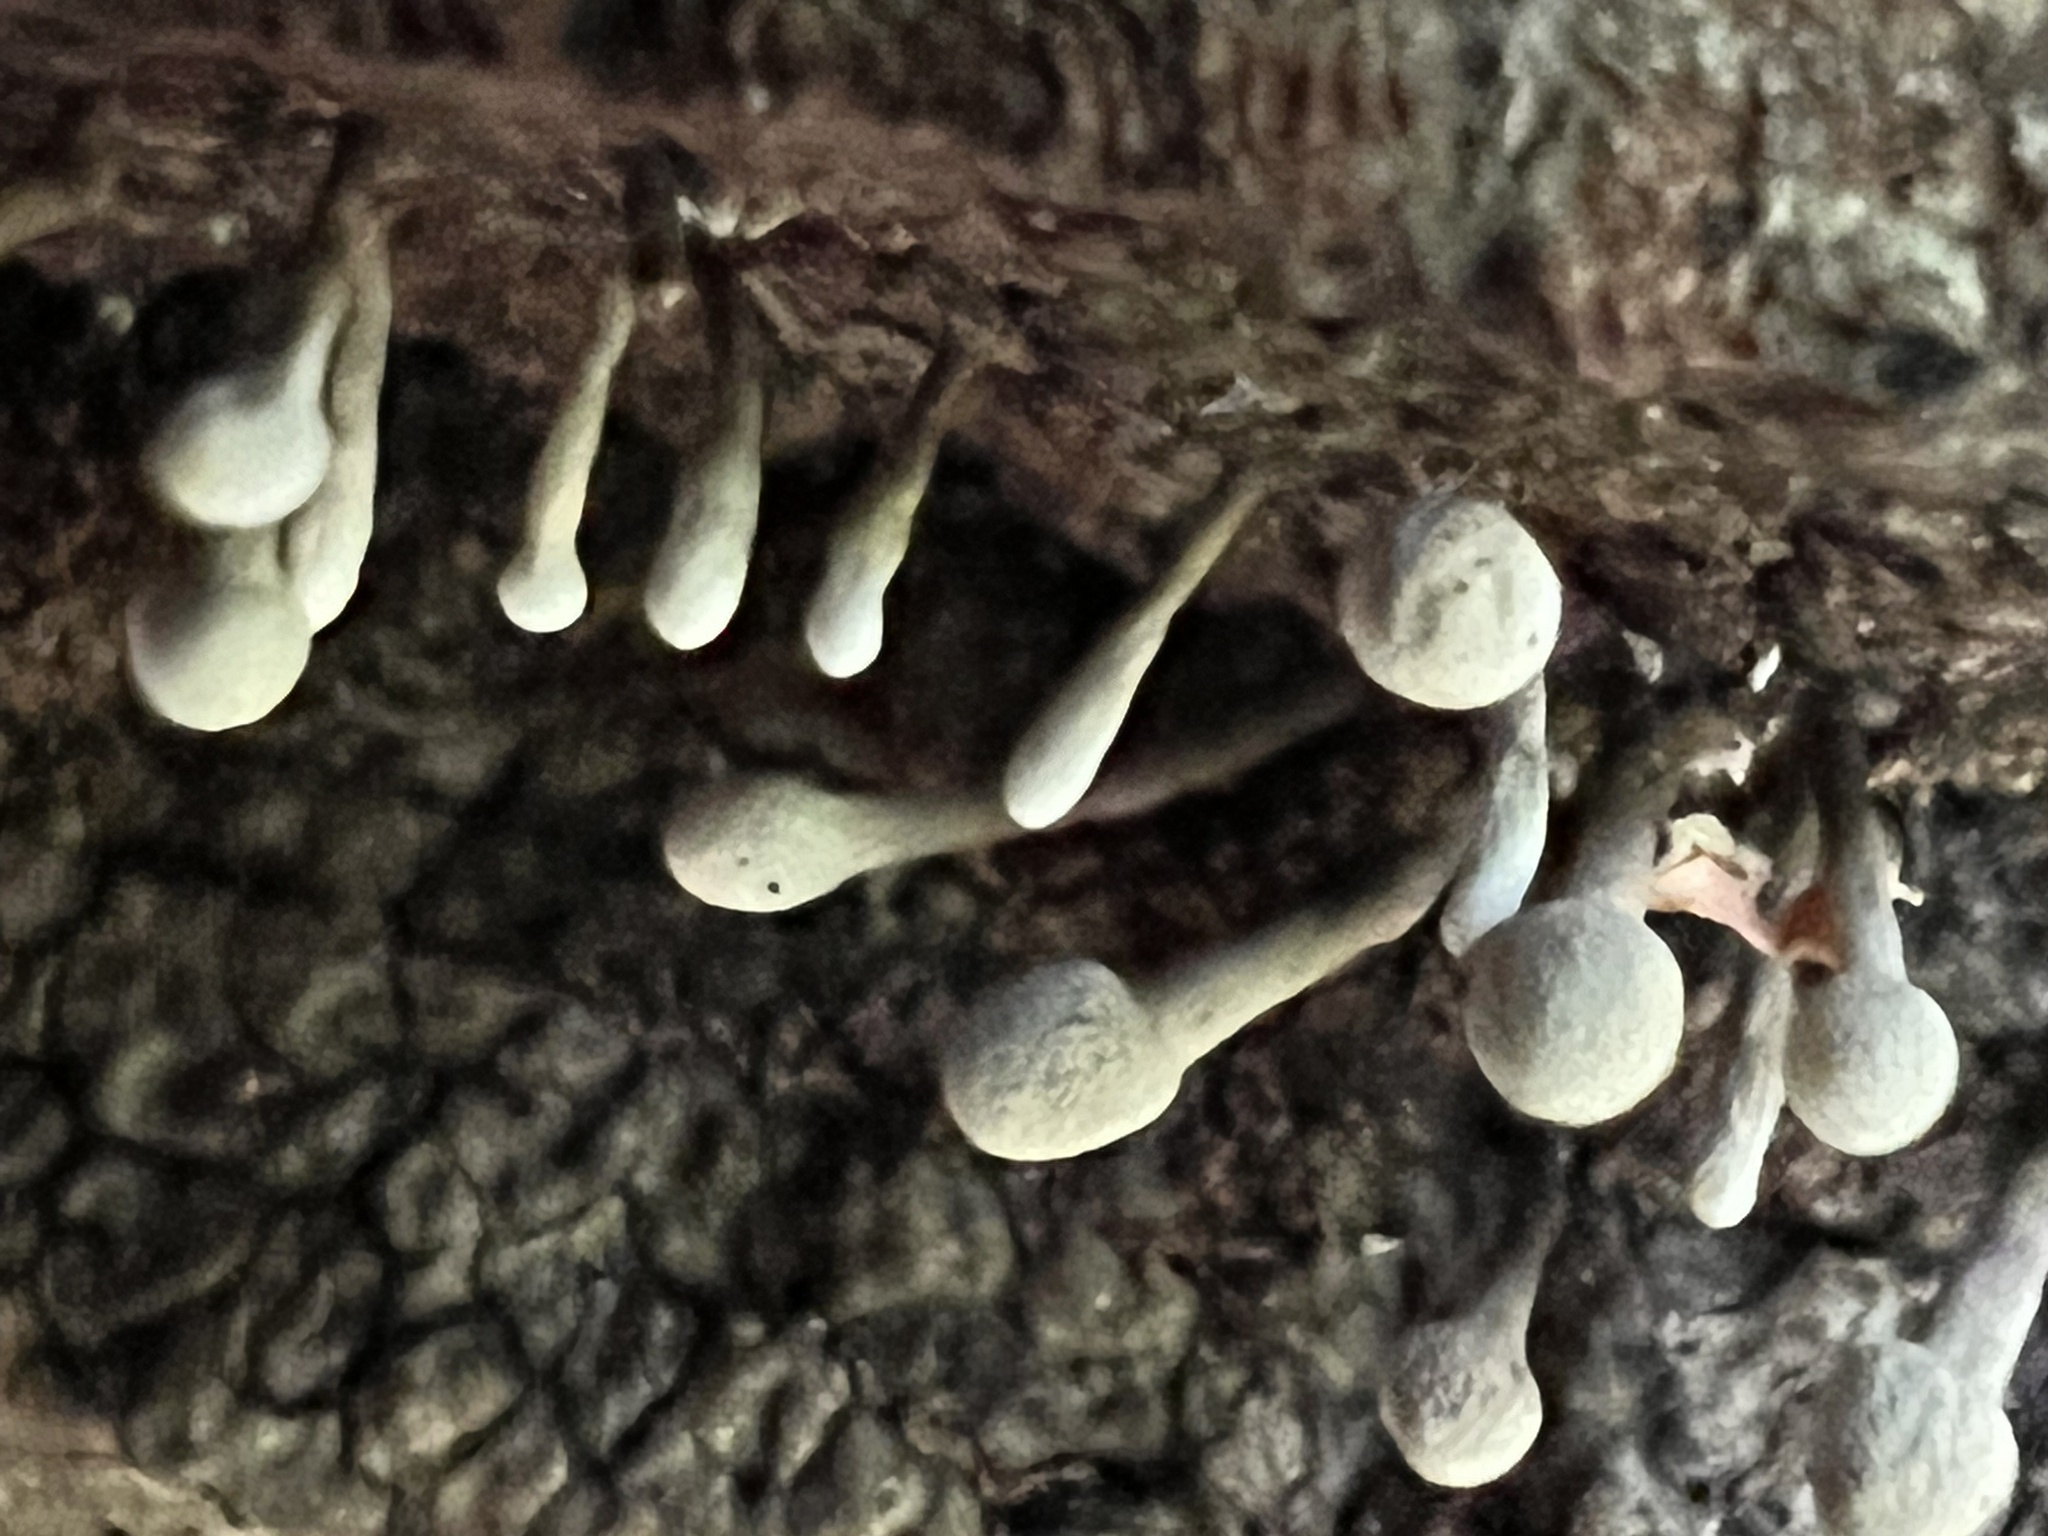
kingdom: Fungi
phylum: Basidiomycota
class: Atractiellomycetes
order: Atractiellales
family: Phleogenaceae
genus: Phleogena
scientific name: Phleogena faginea
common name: Fenugreek stalkball
